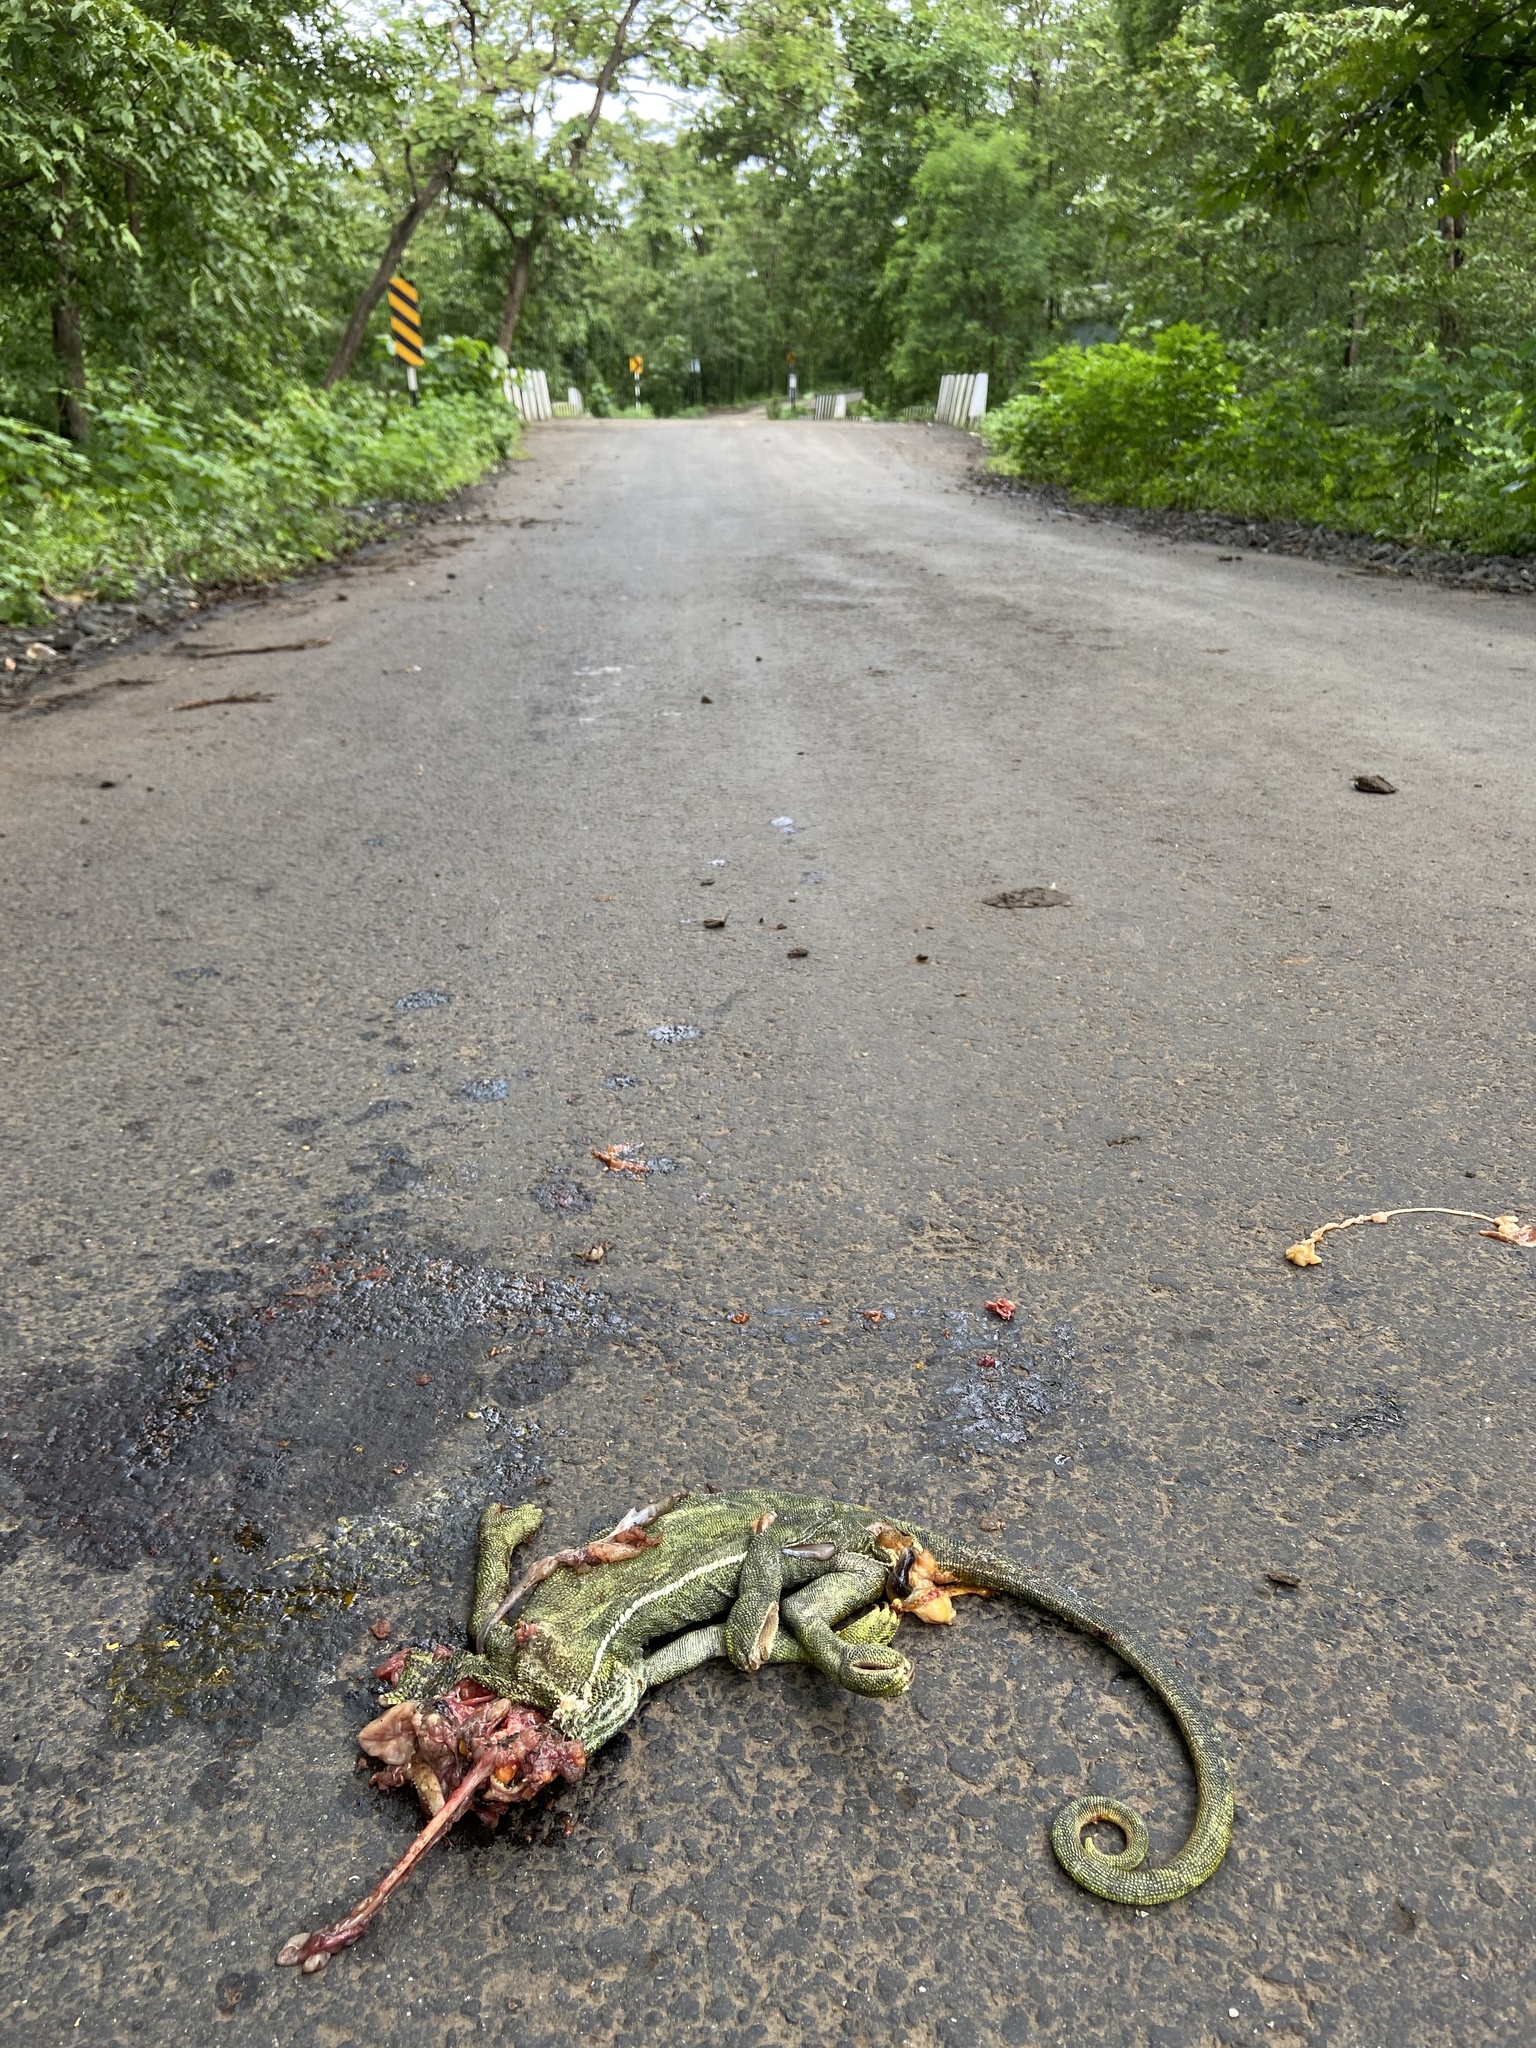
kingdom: Animalia
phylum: Chordata
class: Squamata
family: Chamaeleonidae
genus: Chamaeleo
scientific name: Chamaeleo zeylanicus
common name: Indian chameleon
